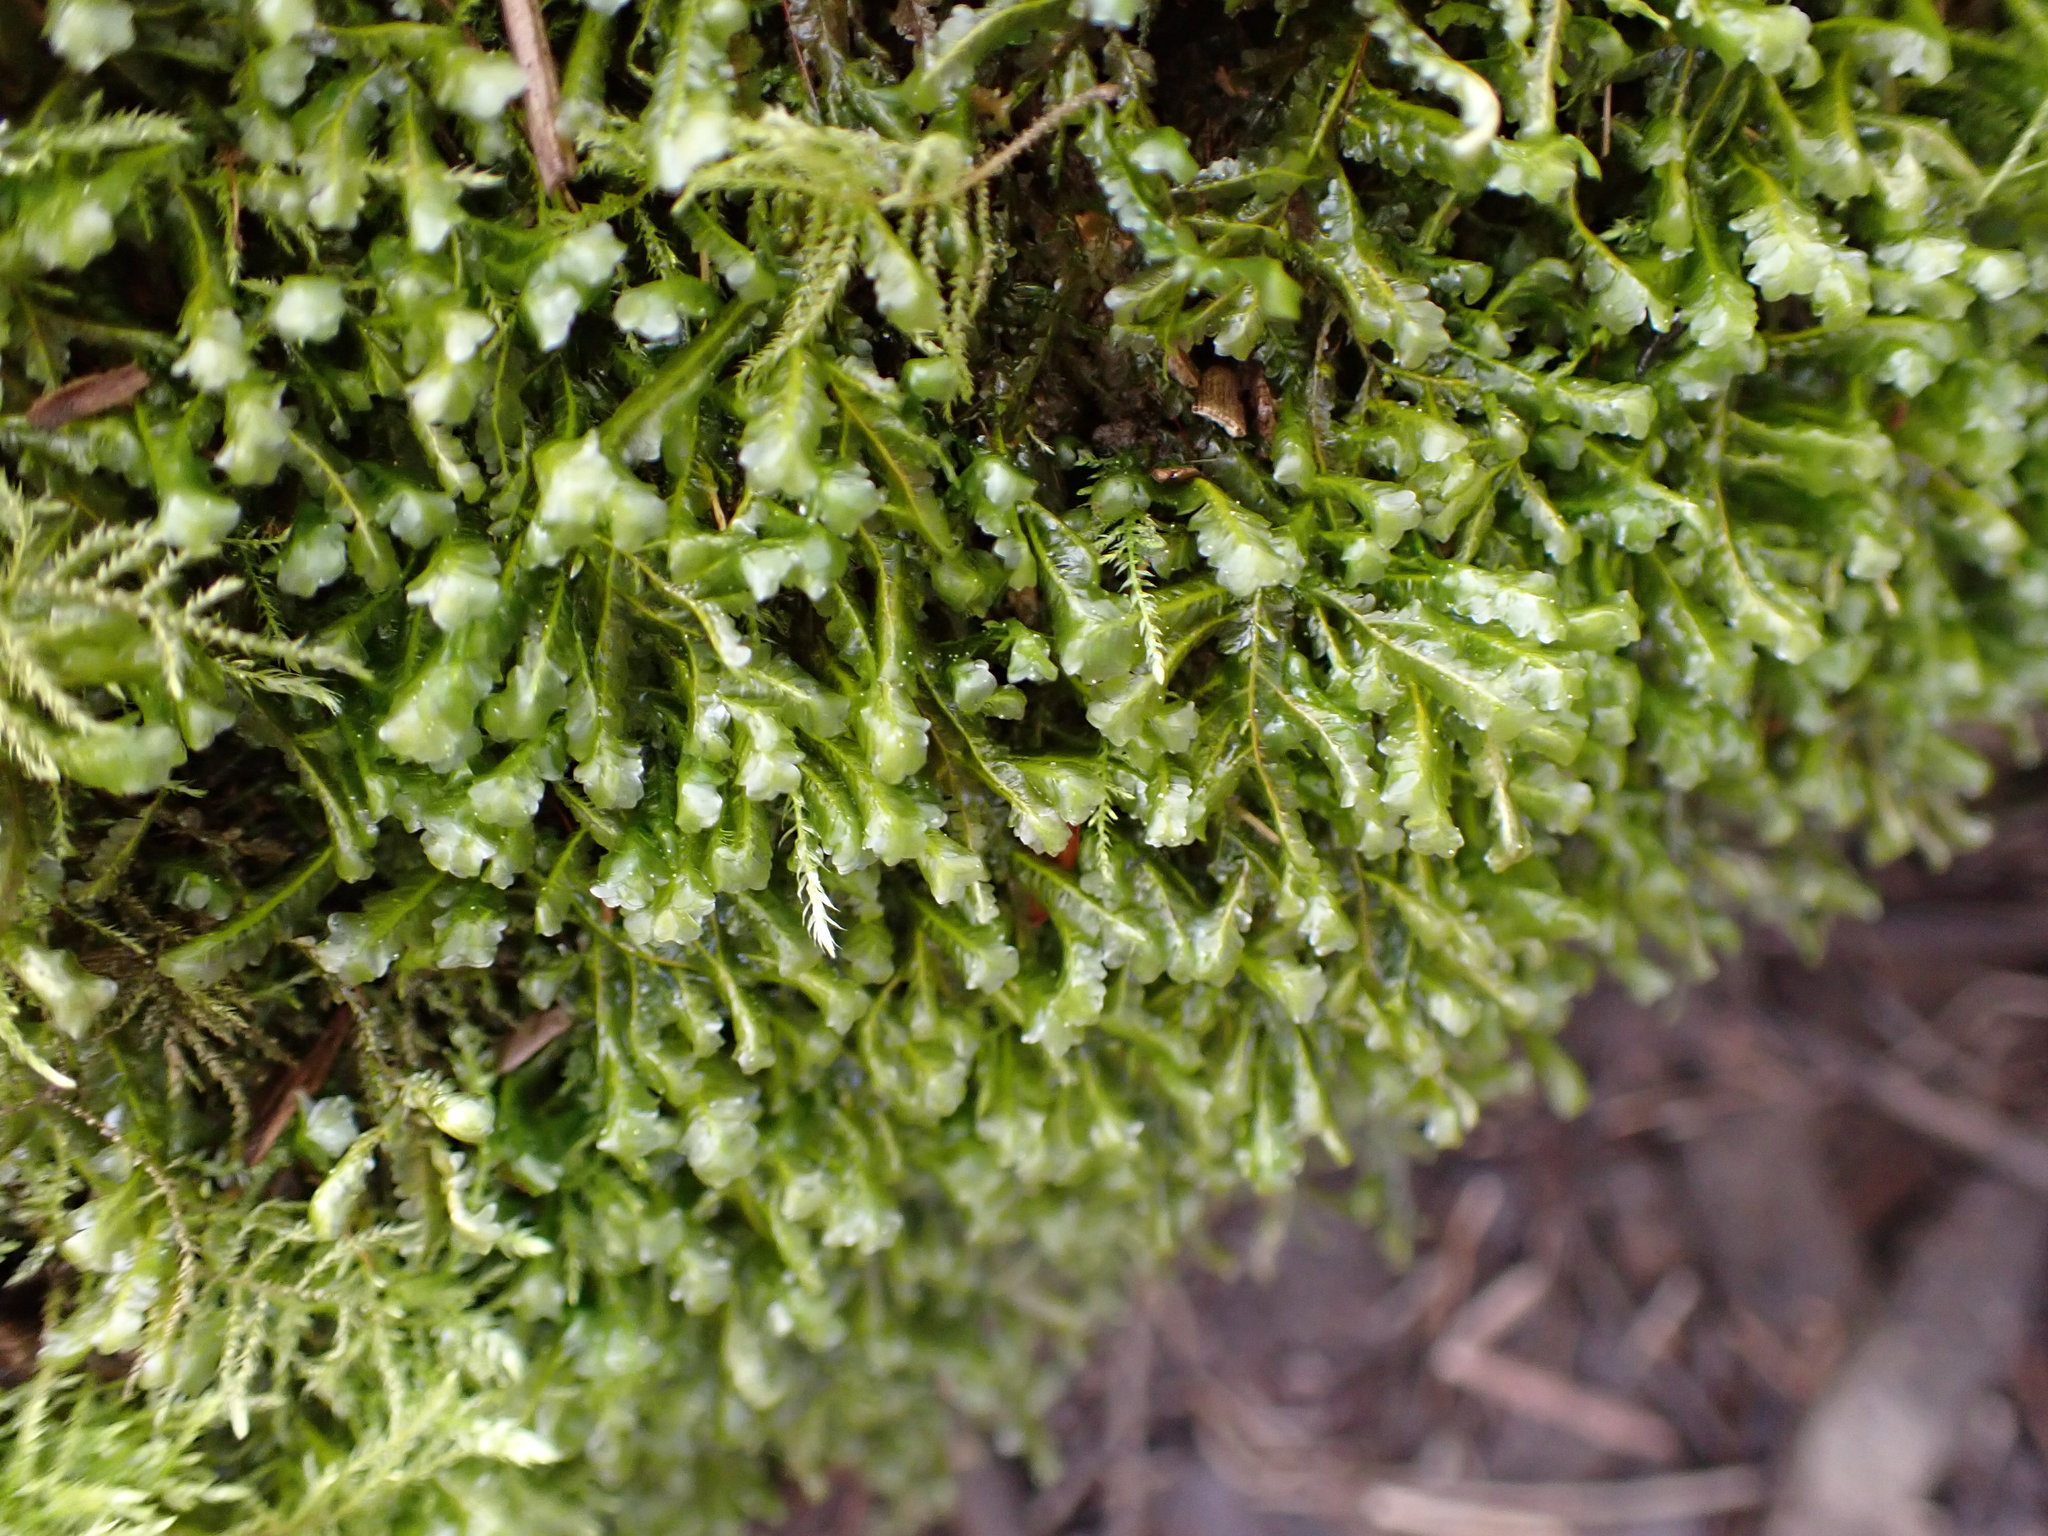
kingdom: Plantae
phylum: Bryophyta
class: Bryopsida
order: Hypnales
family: Neckeraceae
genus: Homalia
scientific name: Homalia trichomanoides
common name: Lime homalia moss
